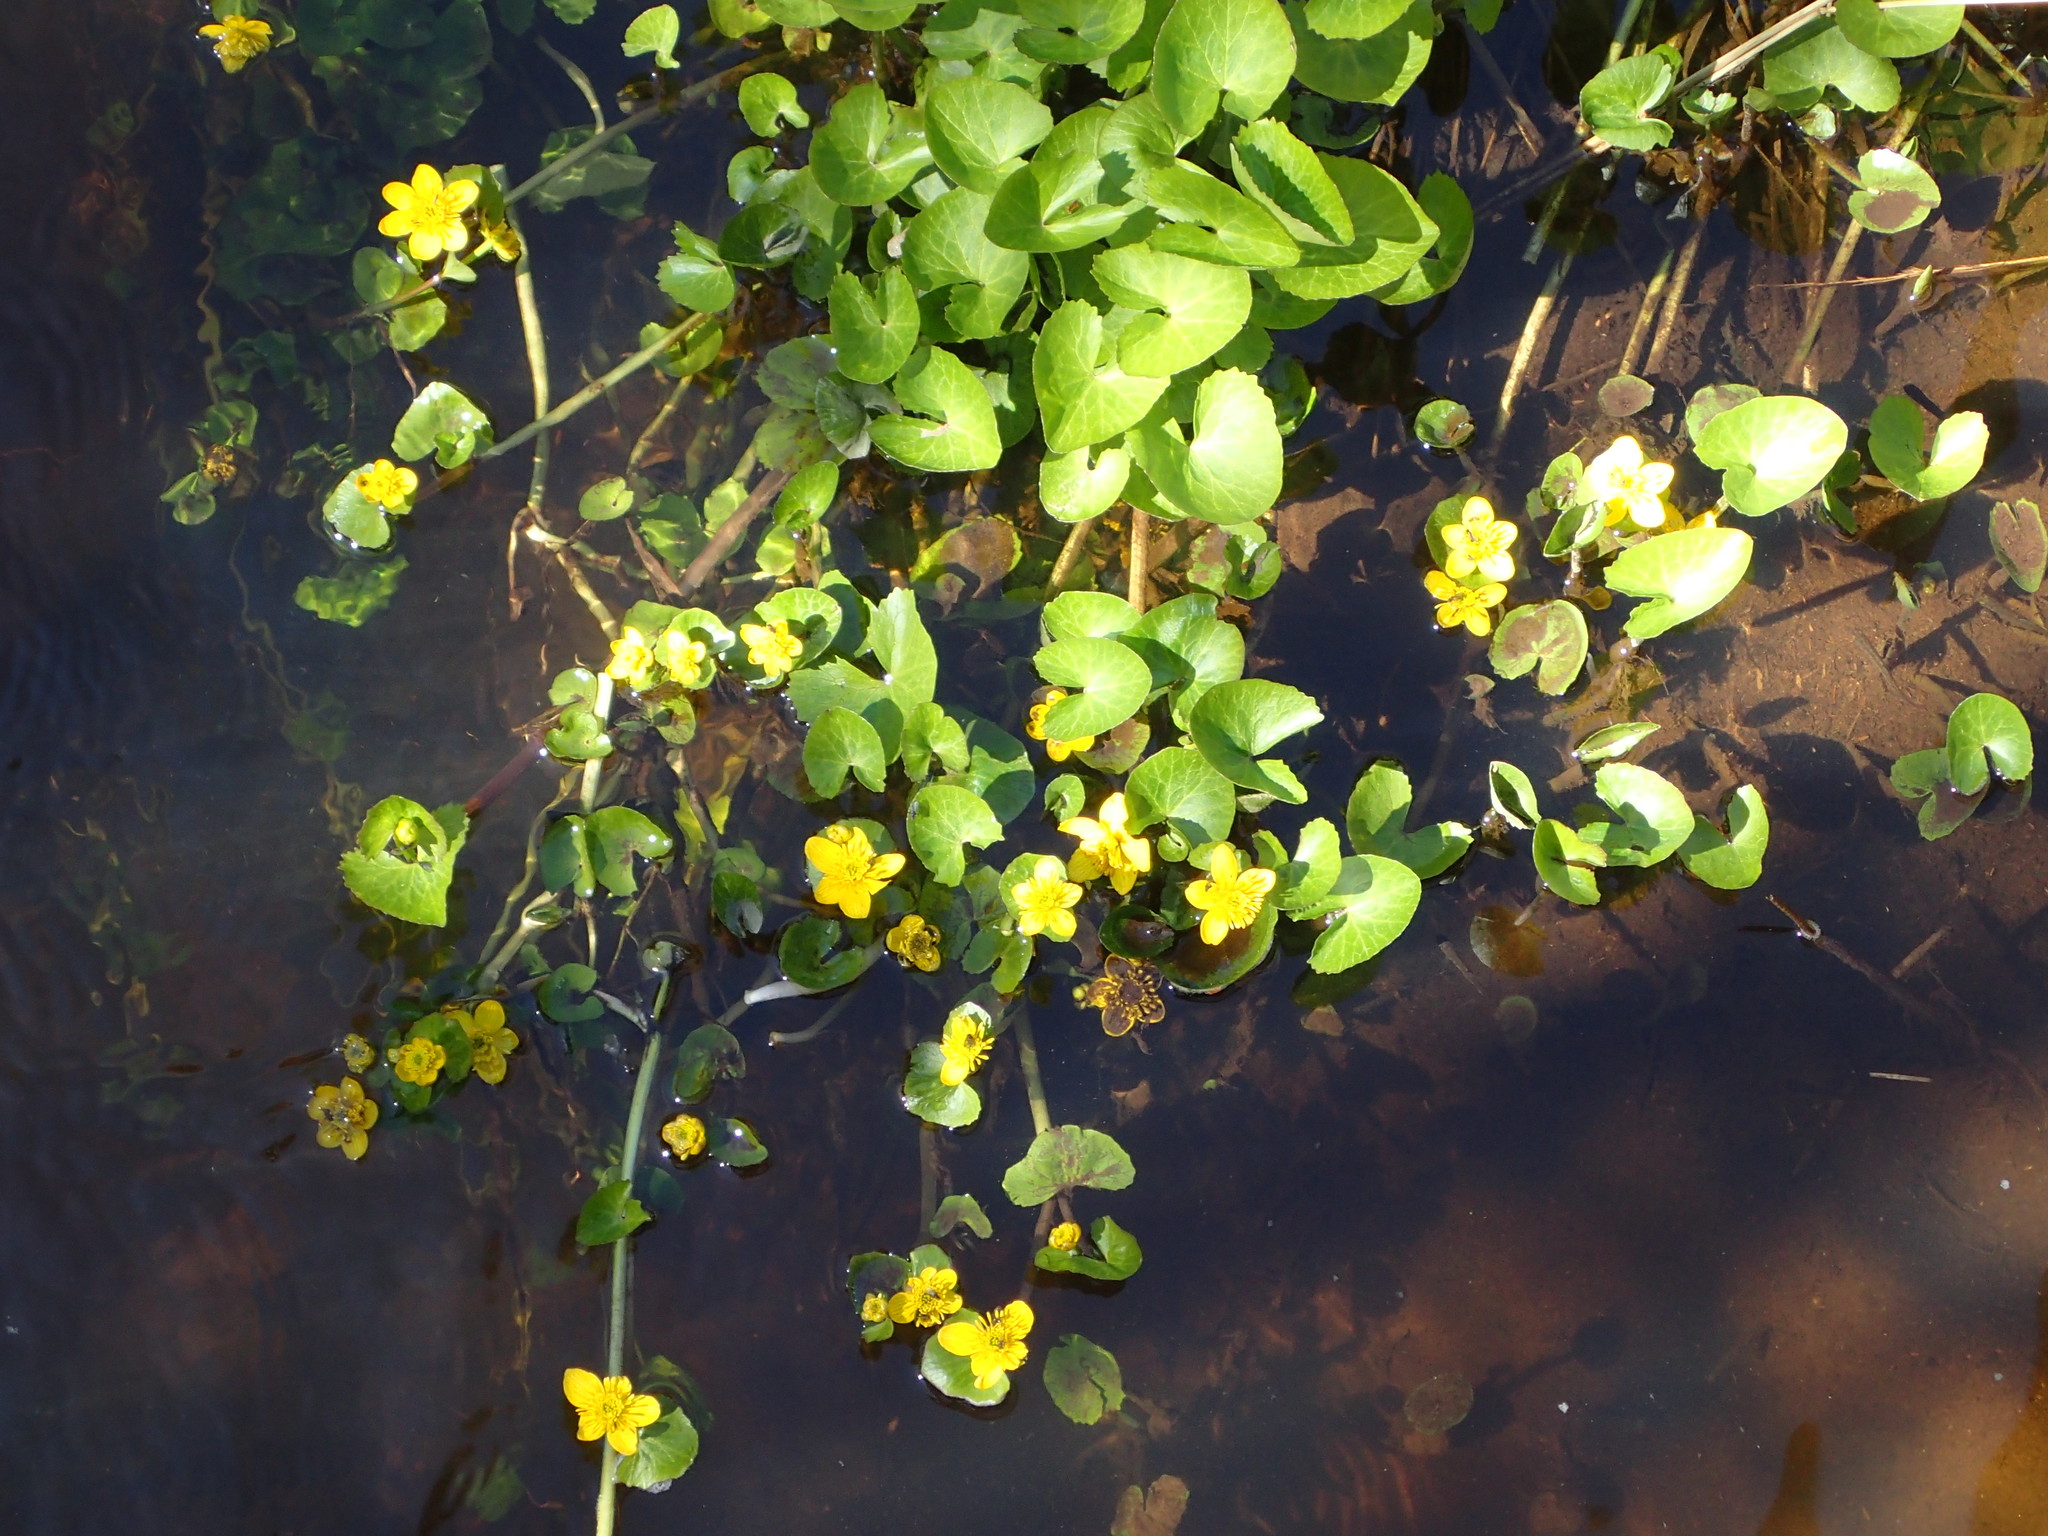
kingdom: Plantae
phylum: Tracheophyta
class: Magnoliopsida
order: Ranunculales
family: Ranunculaceae
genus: Caltha
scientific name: Caltha palustris
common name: Marsh marigold
